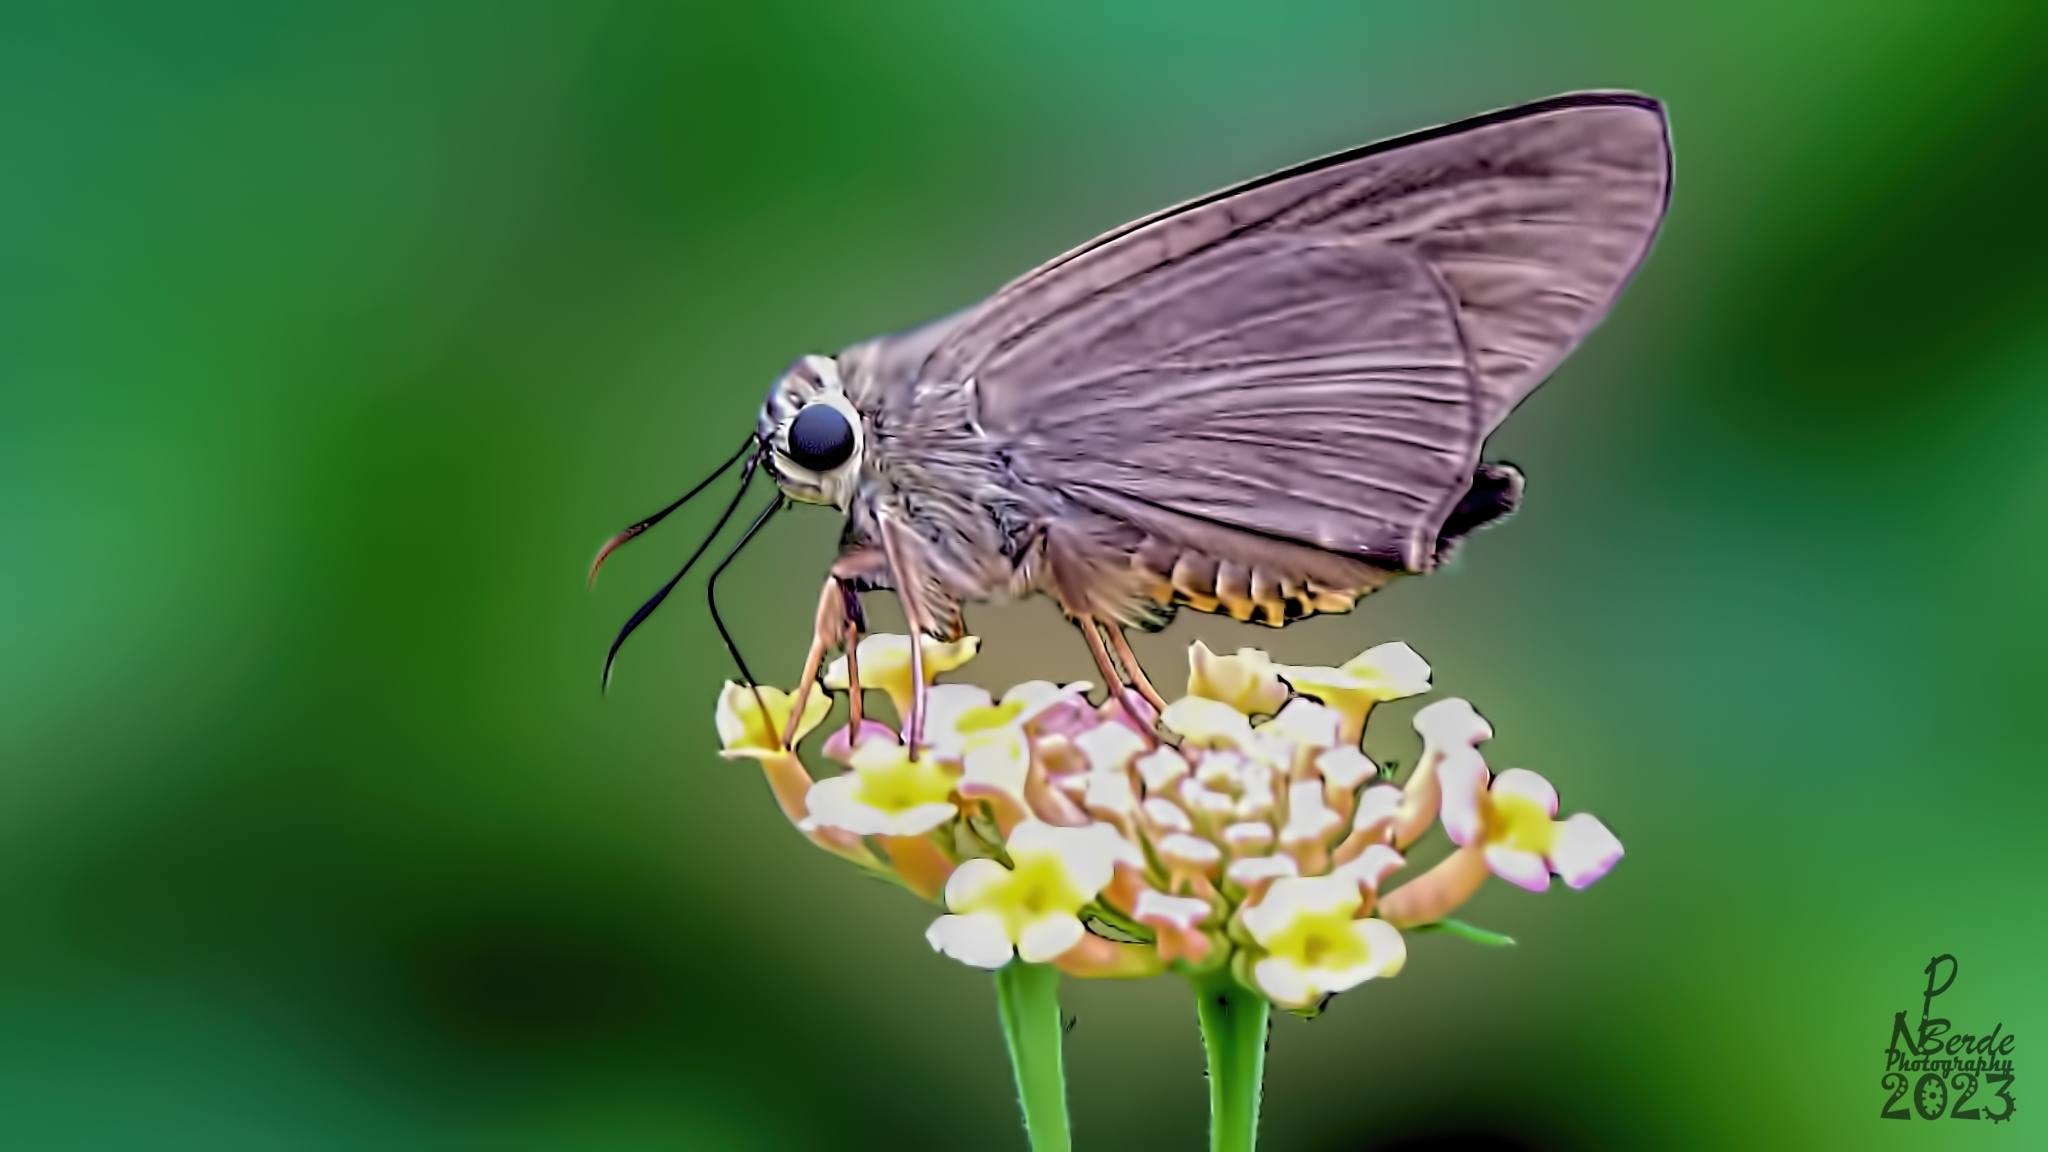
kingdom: Animalia
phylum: Arthropoda
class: Insecta
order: Lepidoptera
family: Hesperiidae
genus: Badamia
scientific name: Badamia exclamationis
